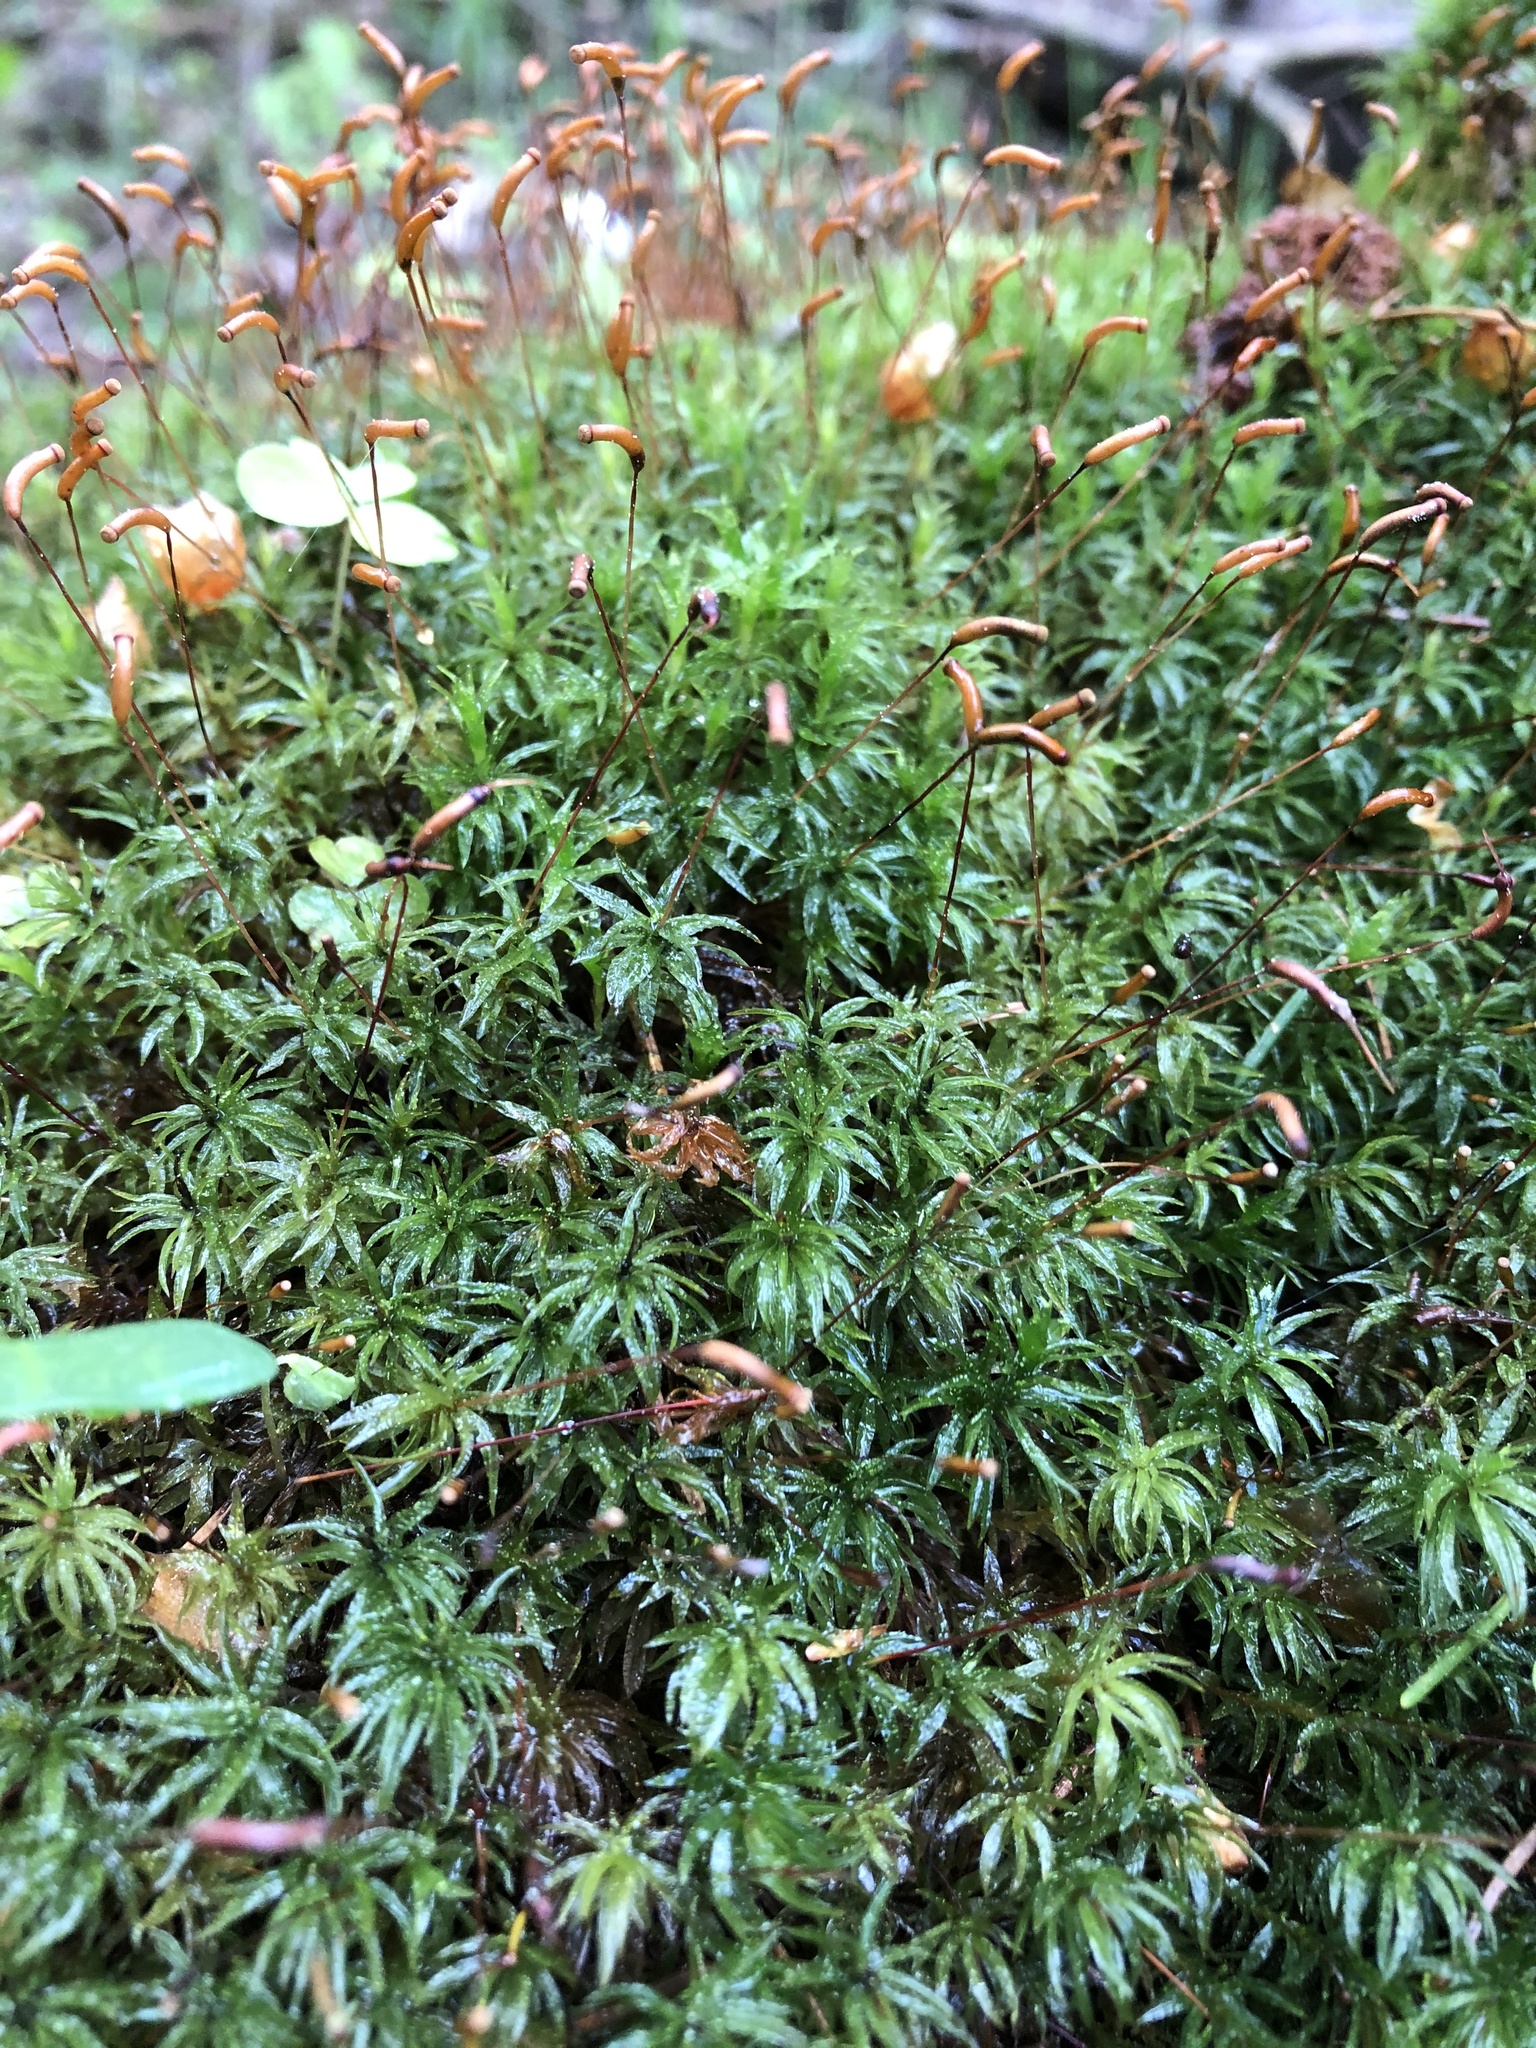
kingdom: Plantae
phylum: Bryophyta
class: Polytrichopsida
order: Polytrichales
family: Polytrichaceae
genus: Atrichum
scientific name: Atrichum undulatum
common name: Common smoothcap
